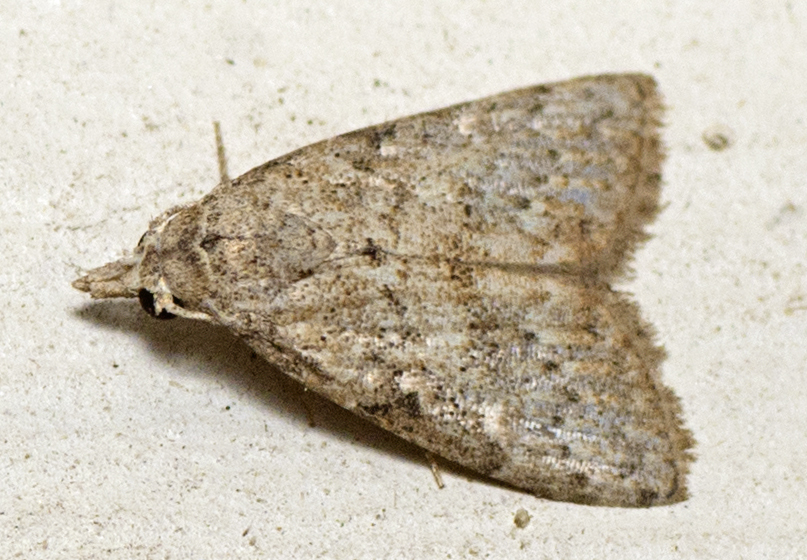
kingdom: Animalia
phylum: Arthropoda
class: Insecta
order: Lepidoptera
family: Nolidae
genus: Nola
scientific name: Nola squalida
